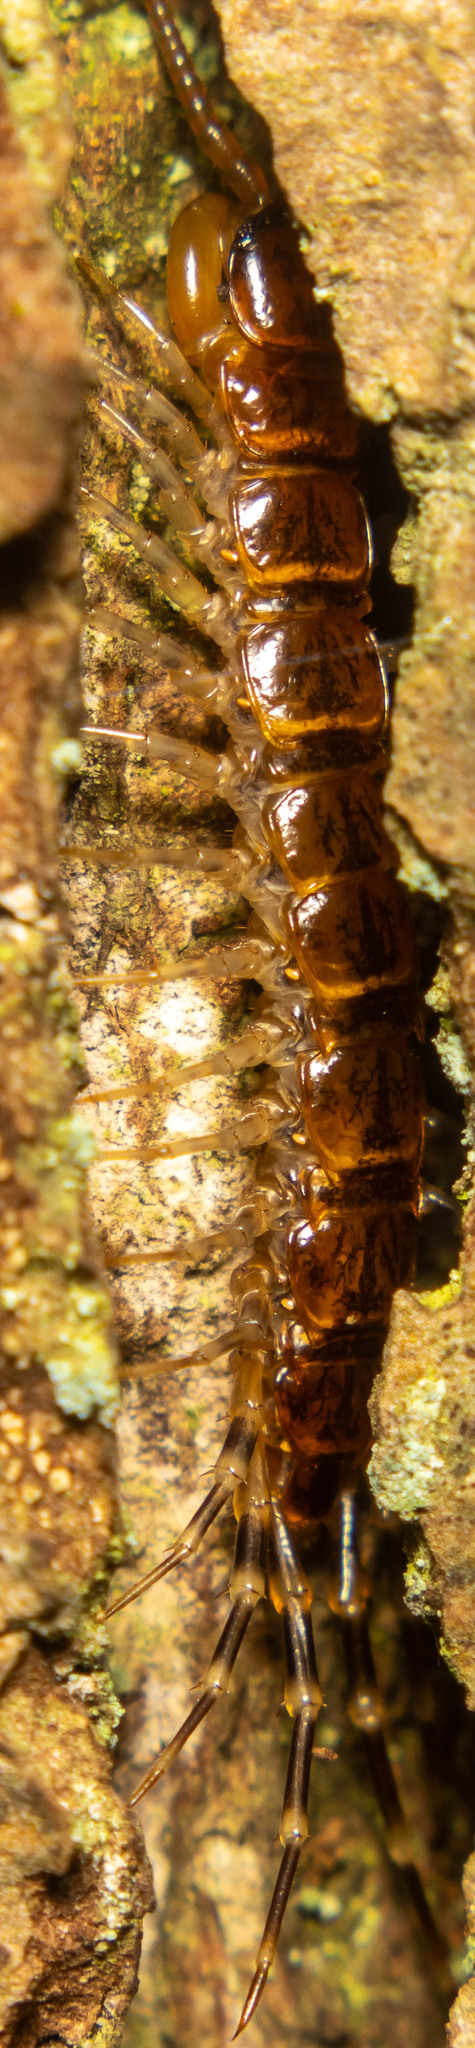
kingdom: Animalia
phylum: Arthropoda
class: Chilopoda
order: Lithobiomorpha
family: Lithobiidae
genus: Lithobius
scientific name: Lithobius variegatus
